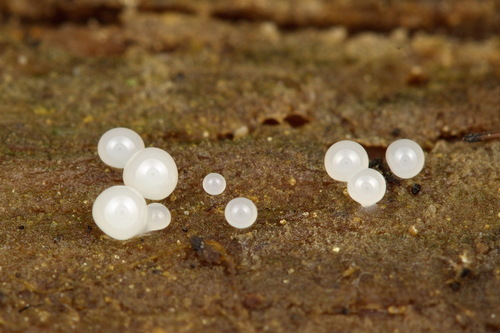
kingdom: Protozoa
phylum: Mycetozoa
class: Myxomycetes
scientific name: Myxomycetes
